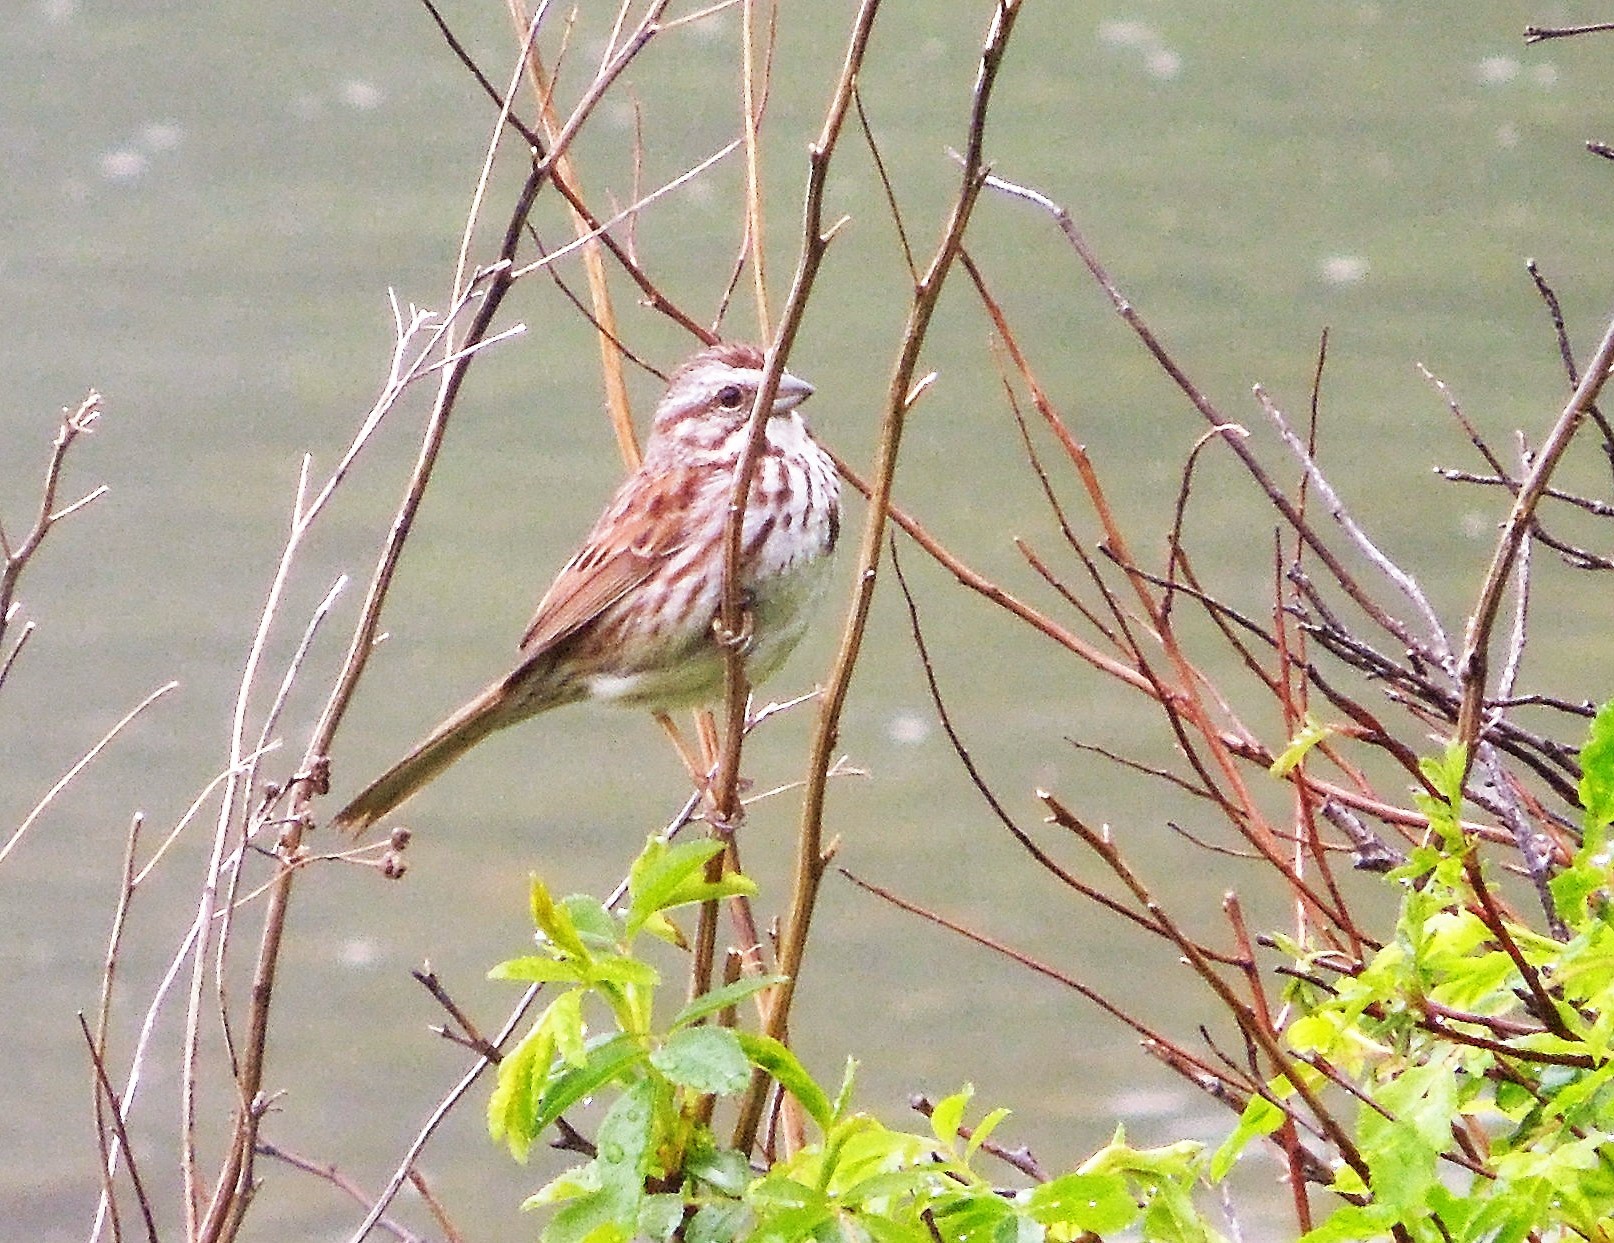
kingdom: Animalia
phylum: Chordata
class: Aves
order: Passeriformes
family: Passerellidae
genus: Melospiza
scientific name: Melospiza melodia
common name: Song sparrow
